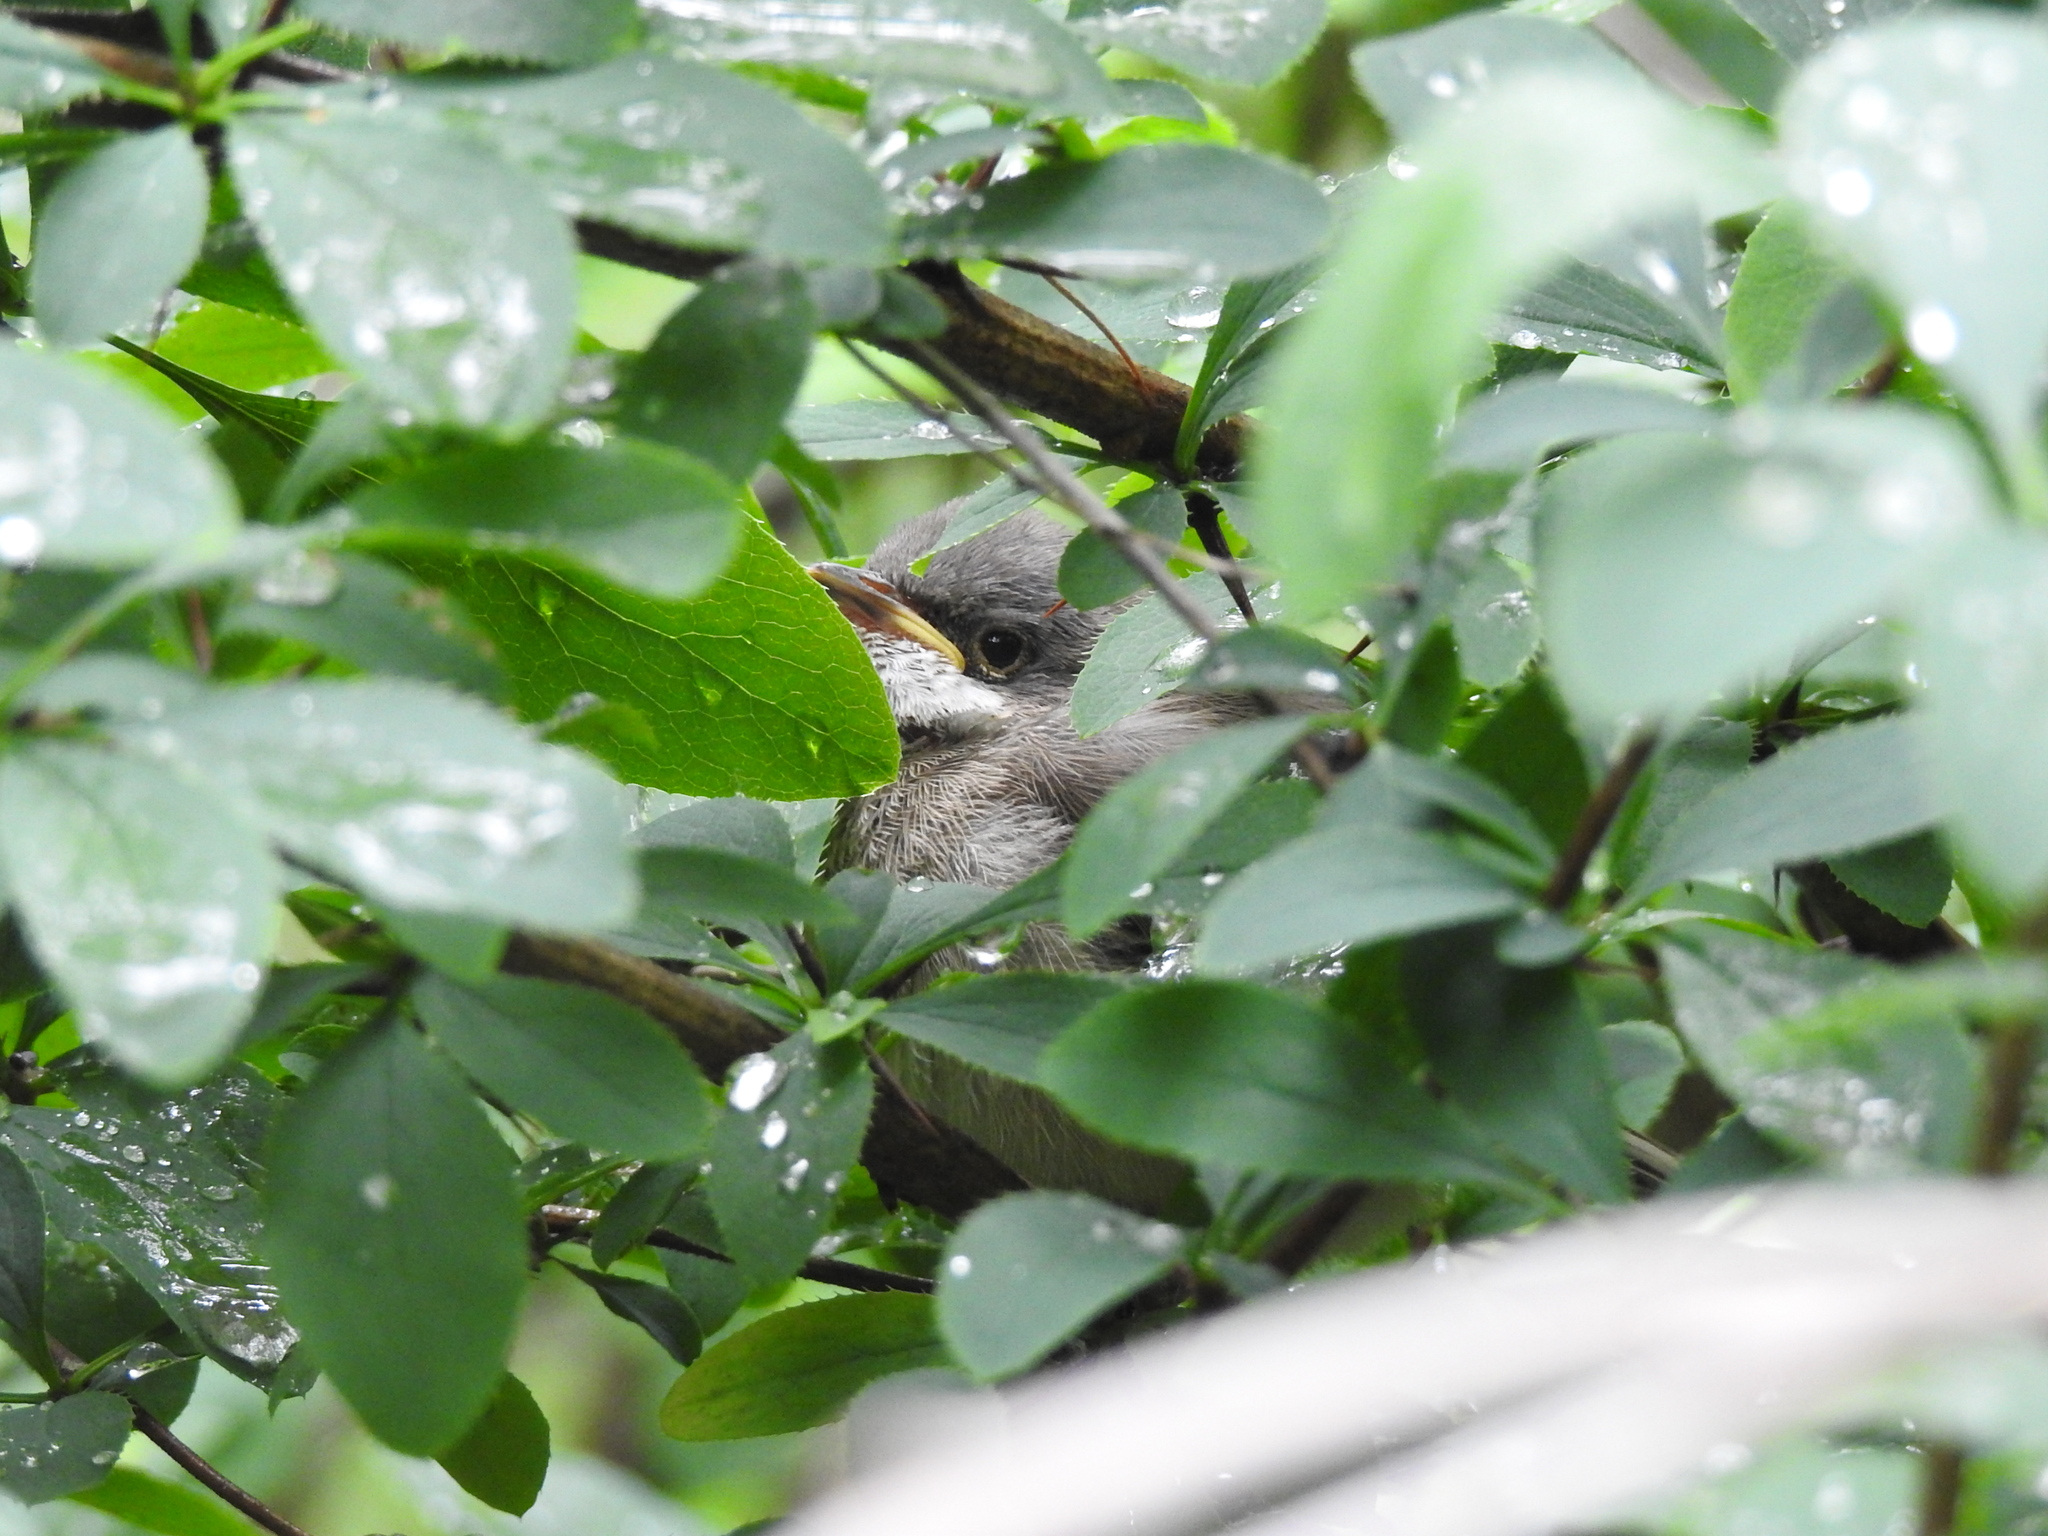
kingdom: Animalia
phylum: Chordata
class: Aves
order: Passeriformes
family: Sylviidae
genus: Sylvia
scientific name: Sylvia curruca
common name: Lesser whitethroat
